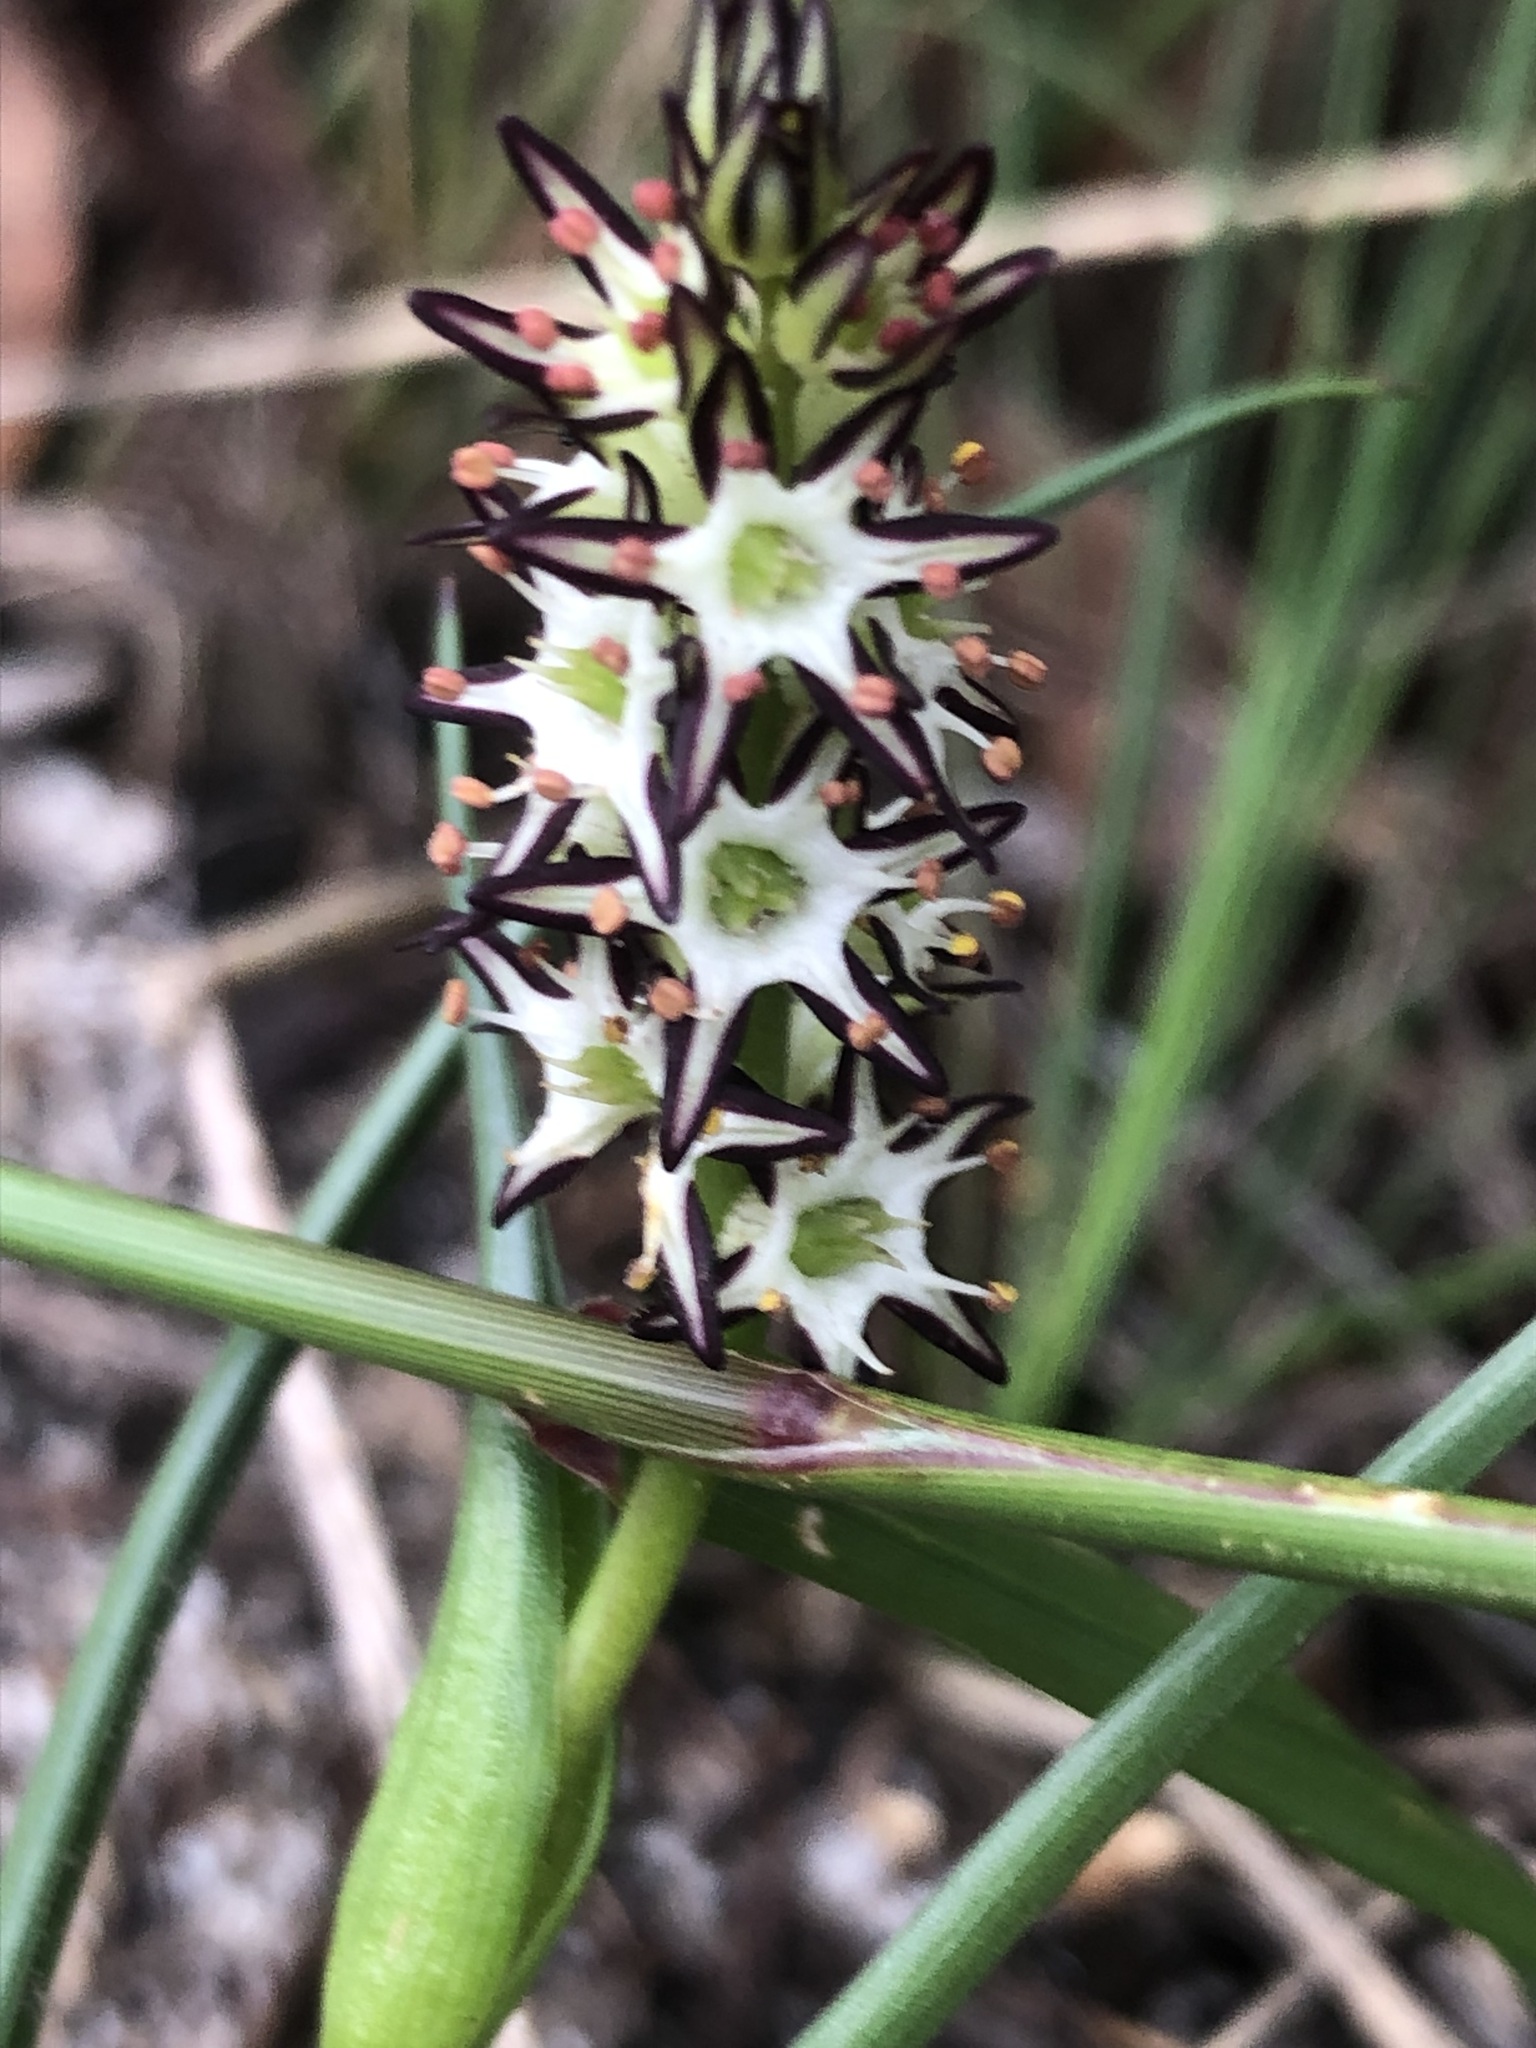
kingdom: Plantae
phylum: Tracheophyta
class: Liliopsida
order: Liliales
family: Colchicaceae
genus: Wurmbea
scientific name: Wurmbea hiemalis
